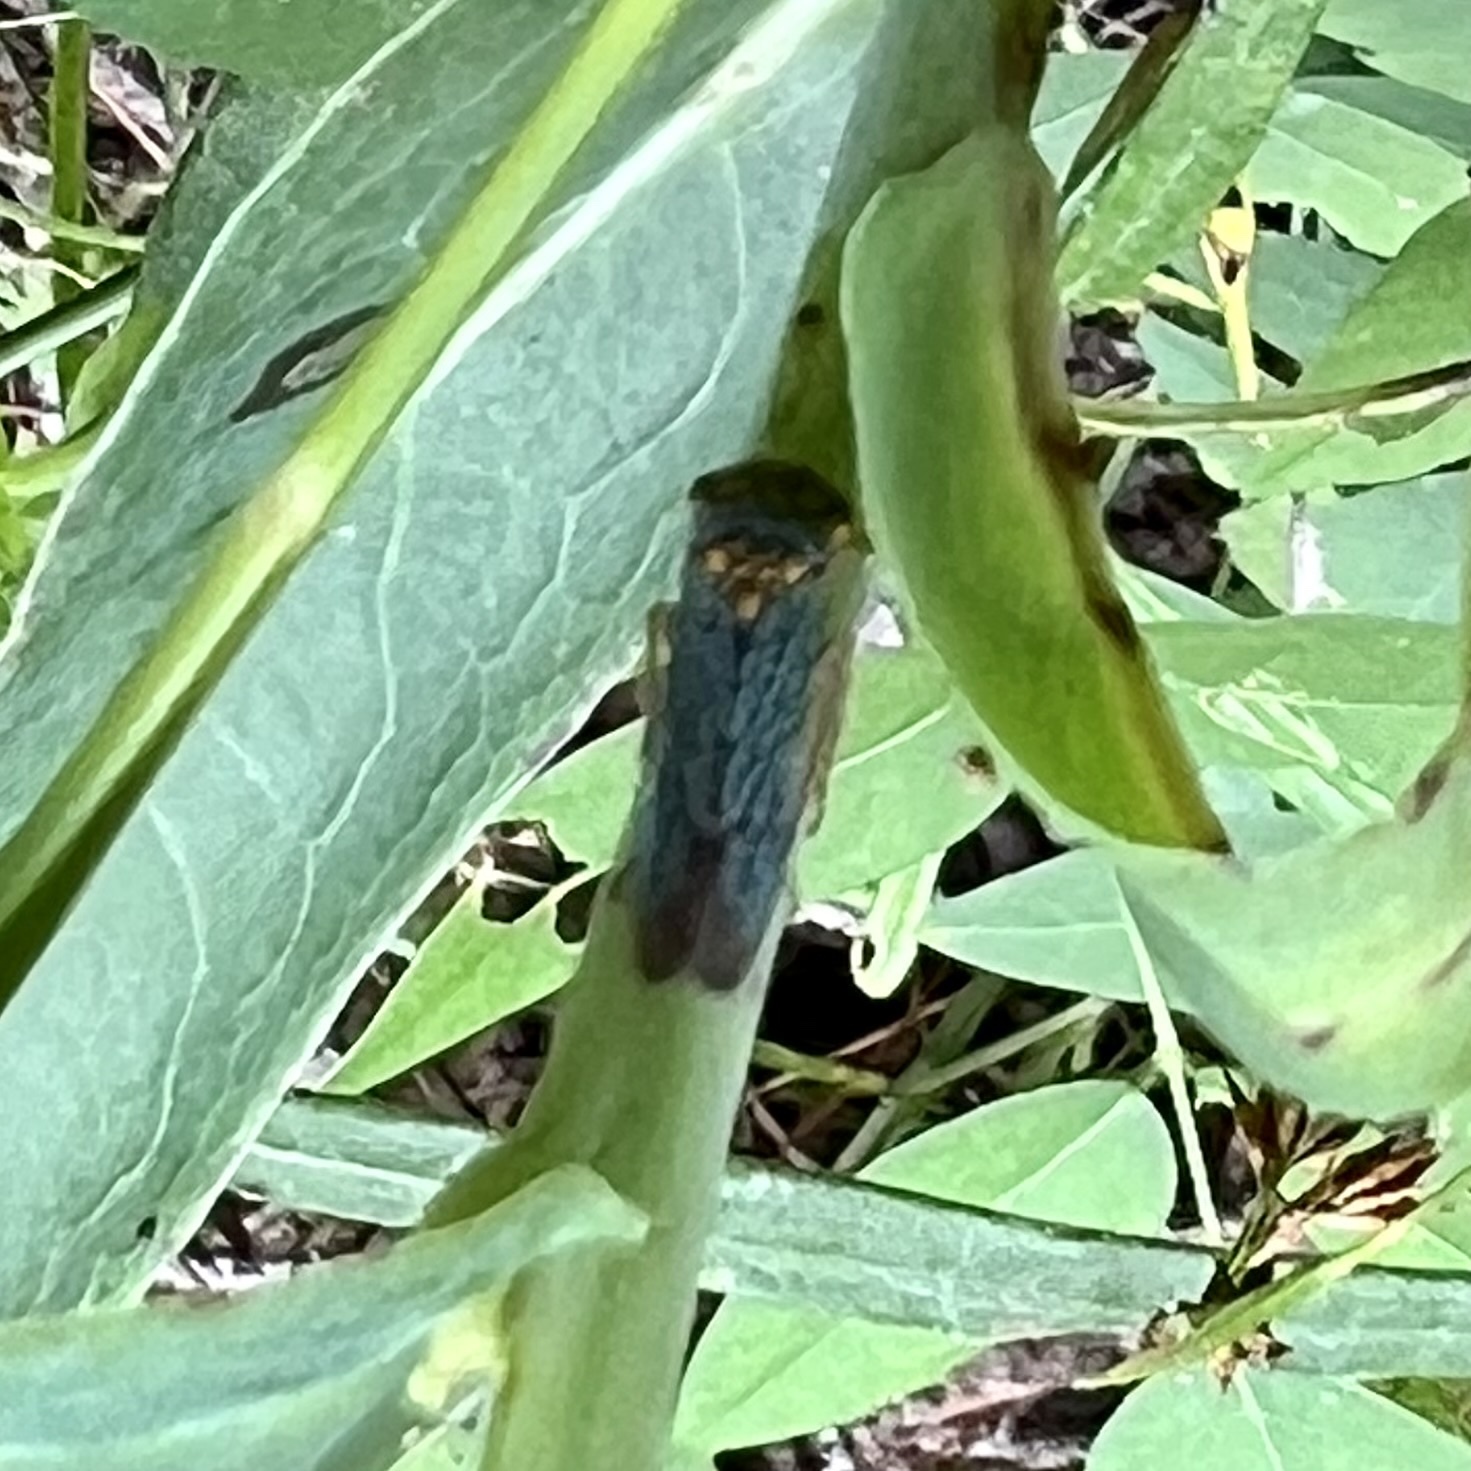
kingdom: Animalia
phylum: Arthropoda
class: Insecta
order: Hemiptera
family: Cicadellidae
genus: Oncometopia
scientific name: Oncometopia orbona
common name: Broad-headed sharpshooter
